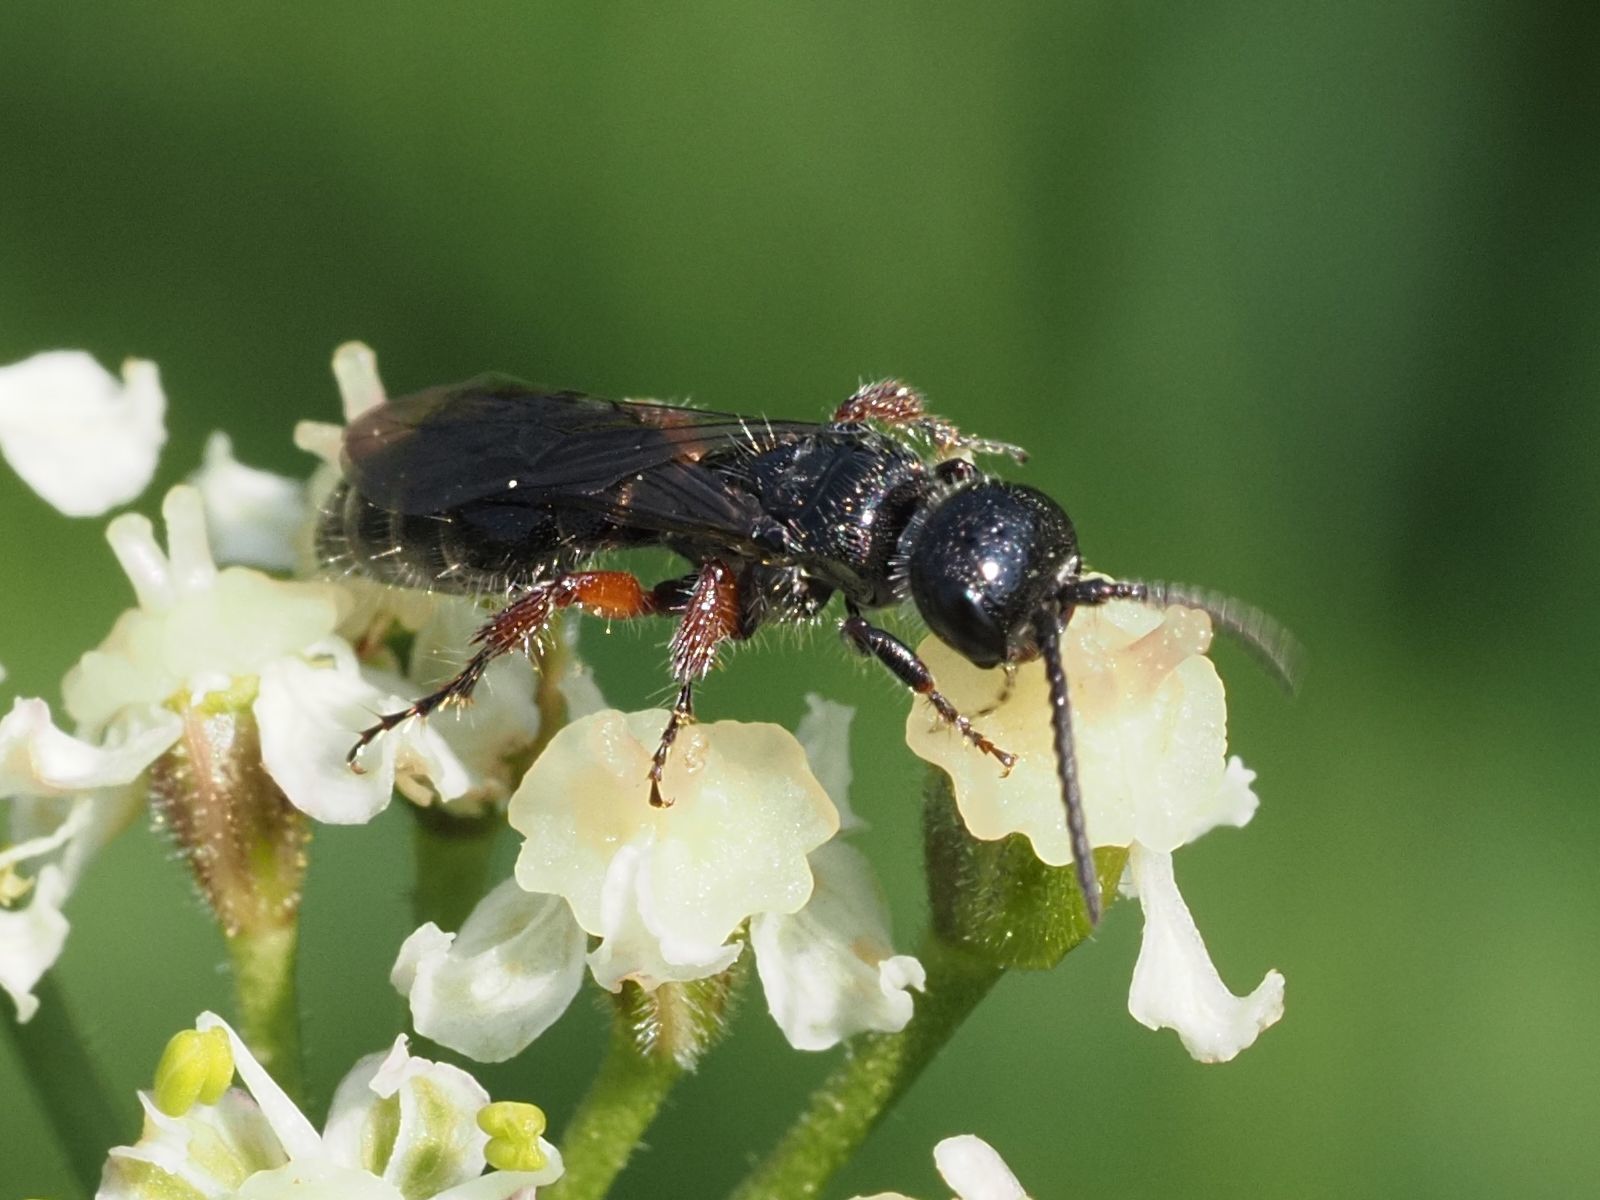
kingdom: Animalia
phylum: Arthropoda
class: Insecta
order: Hymenoptera
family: Tiphiidae
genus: Tiphia
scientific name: Tiphia femorata
